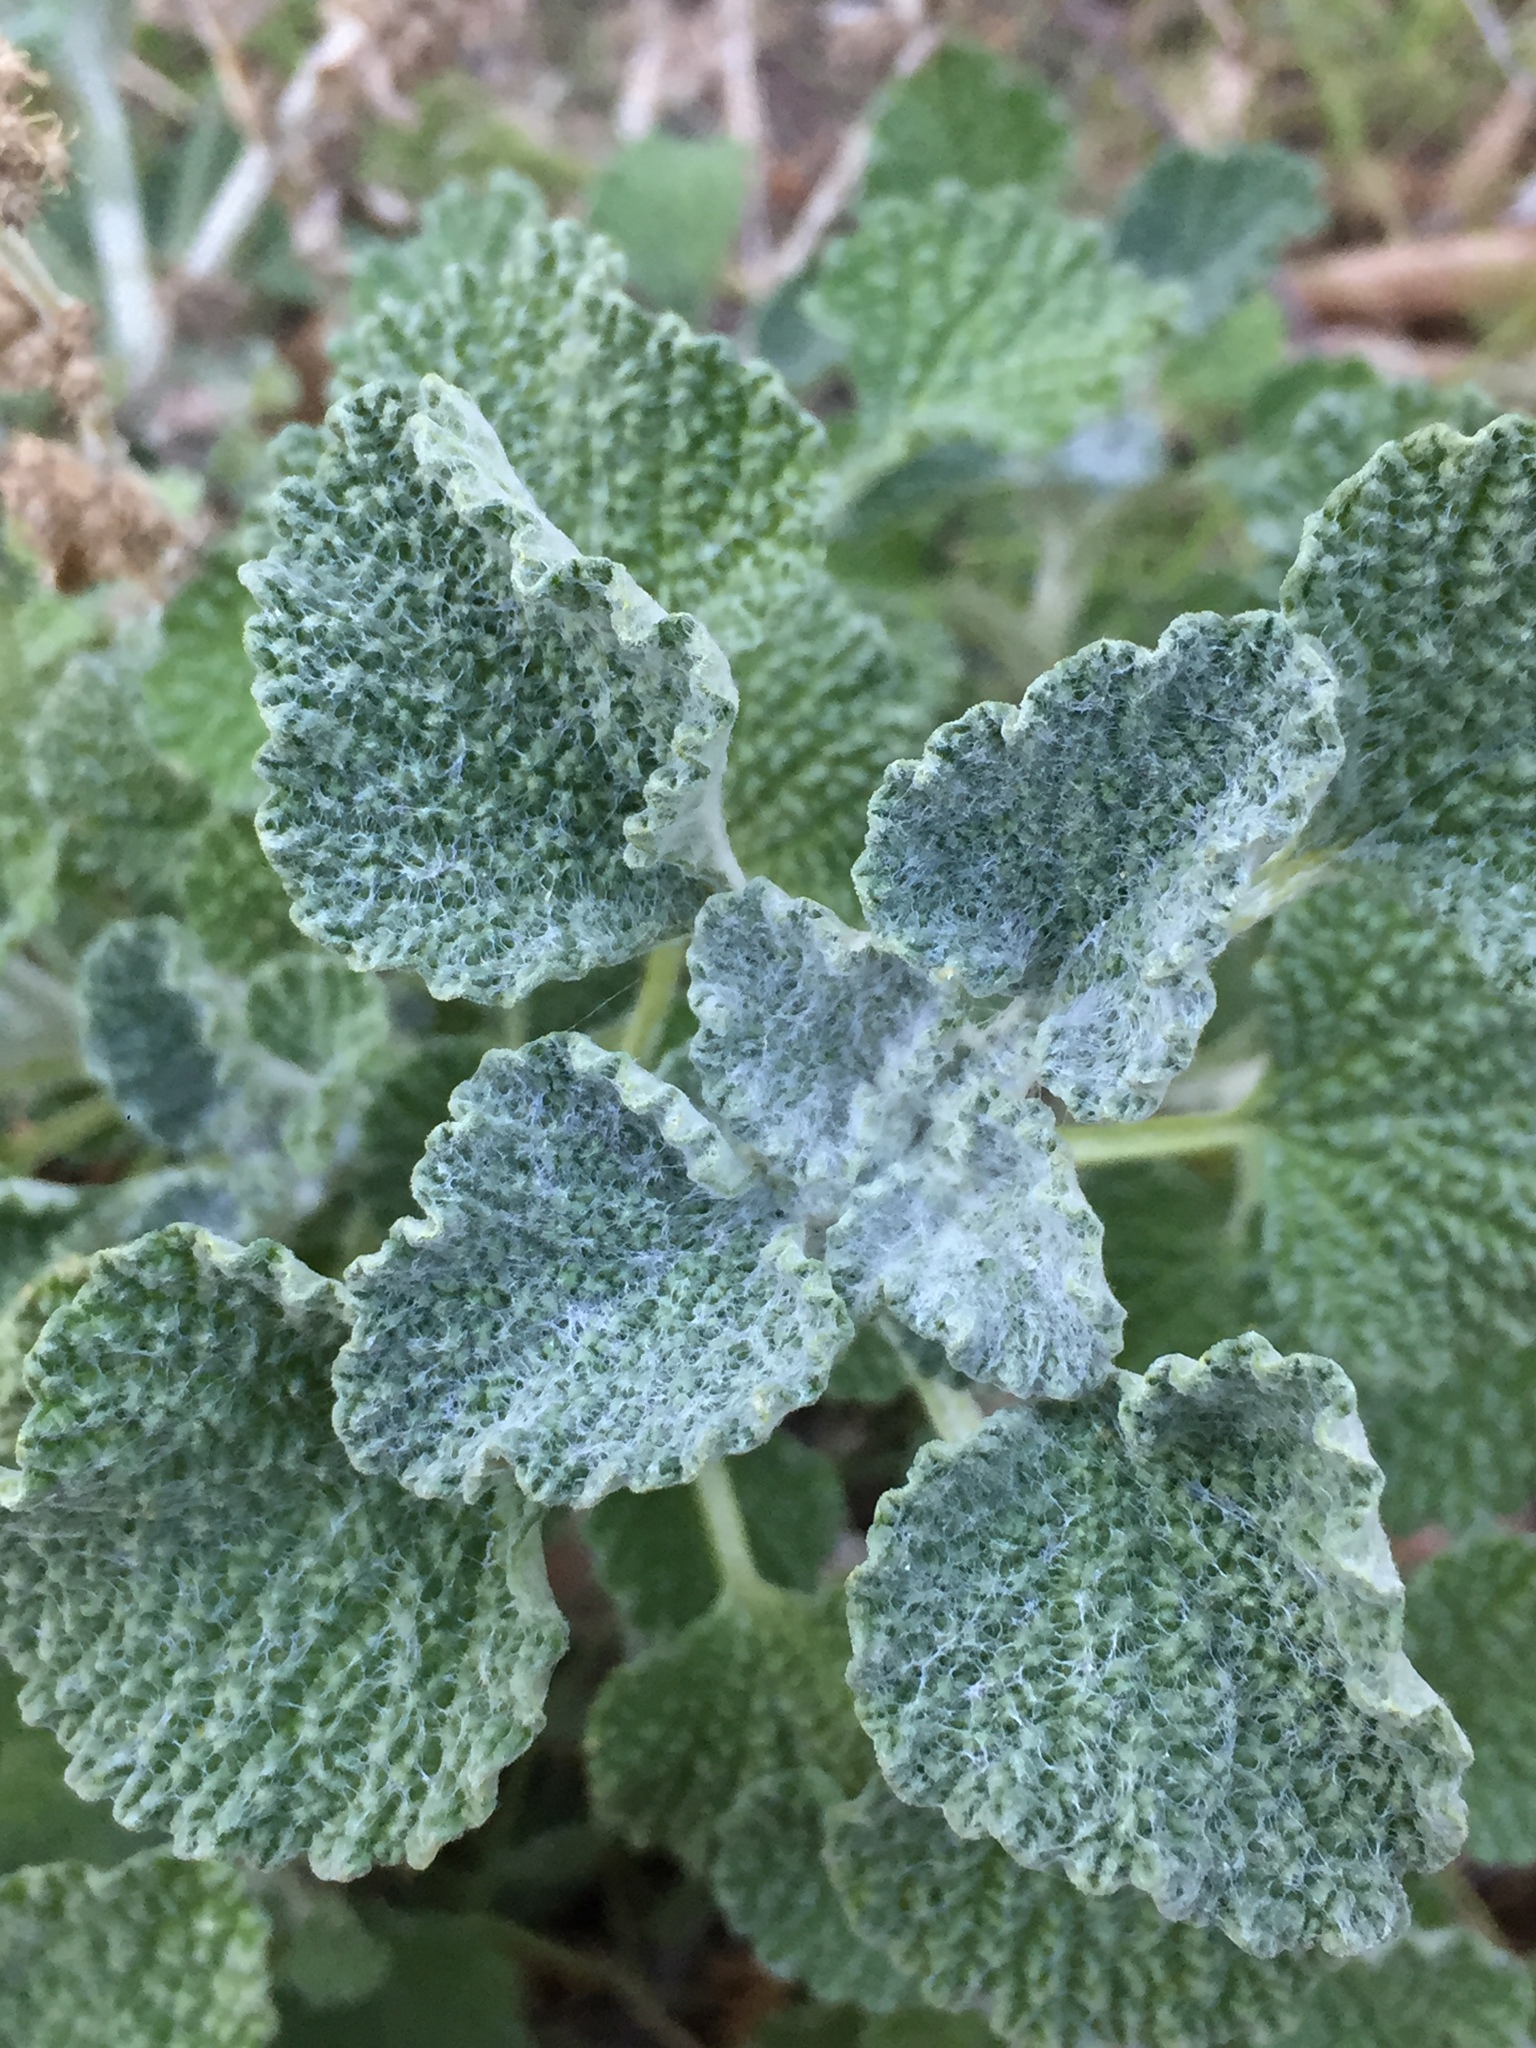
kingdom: Plantae
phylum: Tracheophyta
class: Magnoliopsida
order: Lamiales
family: Lamiaceae
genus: Marrubium
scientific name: Marrubium vulgare
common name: Horehound
